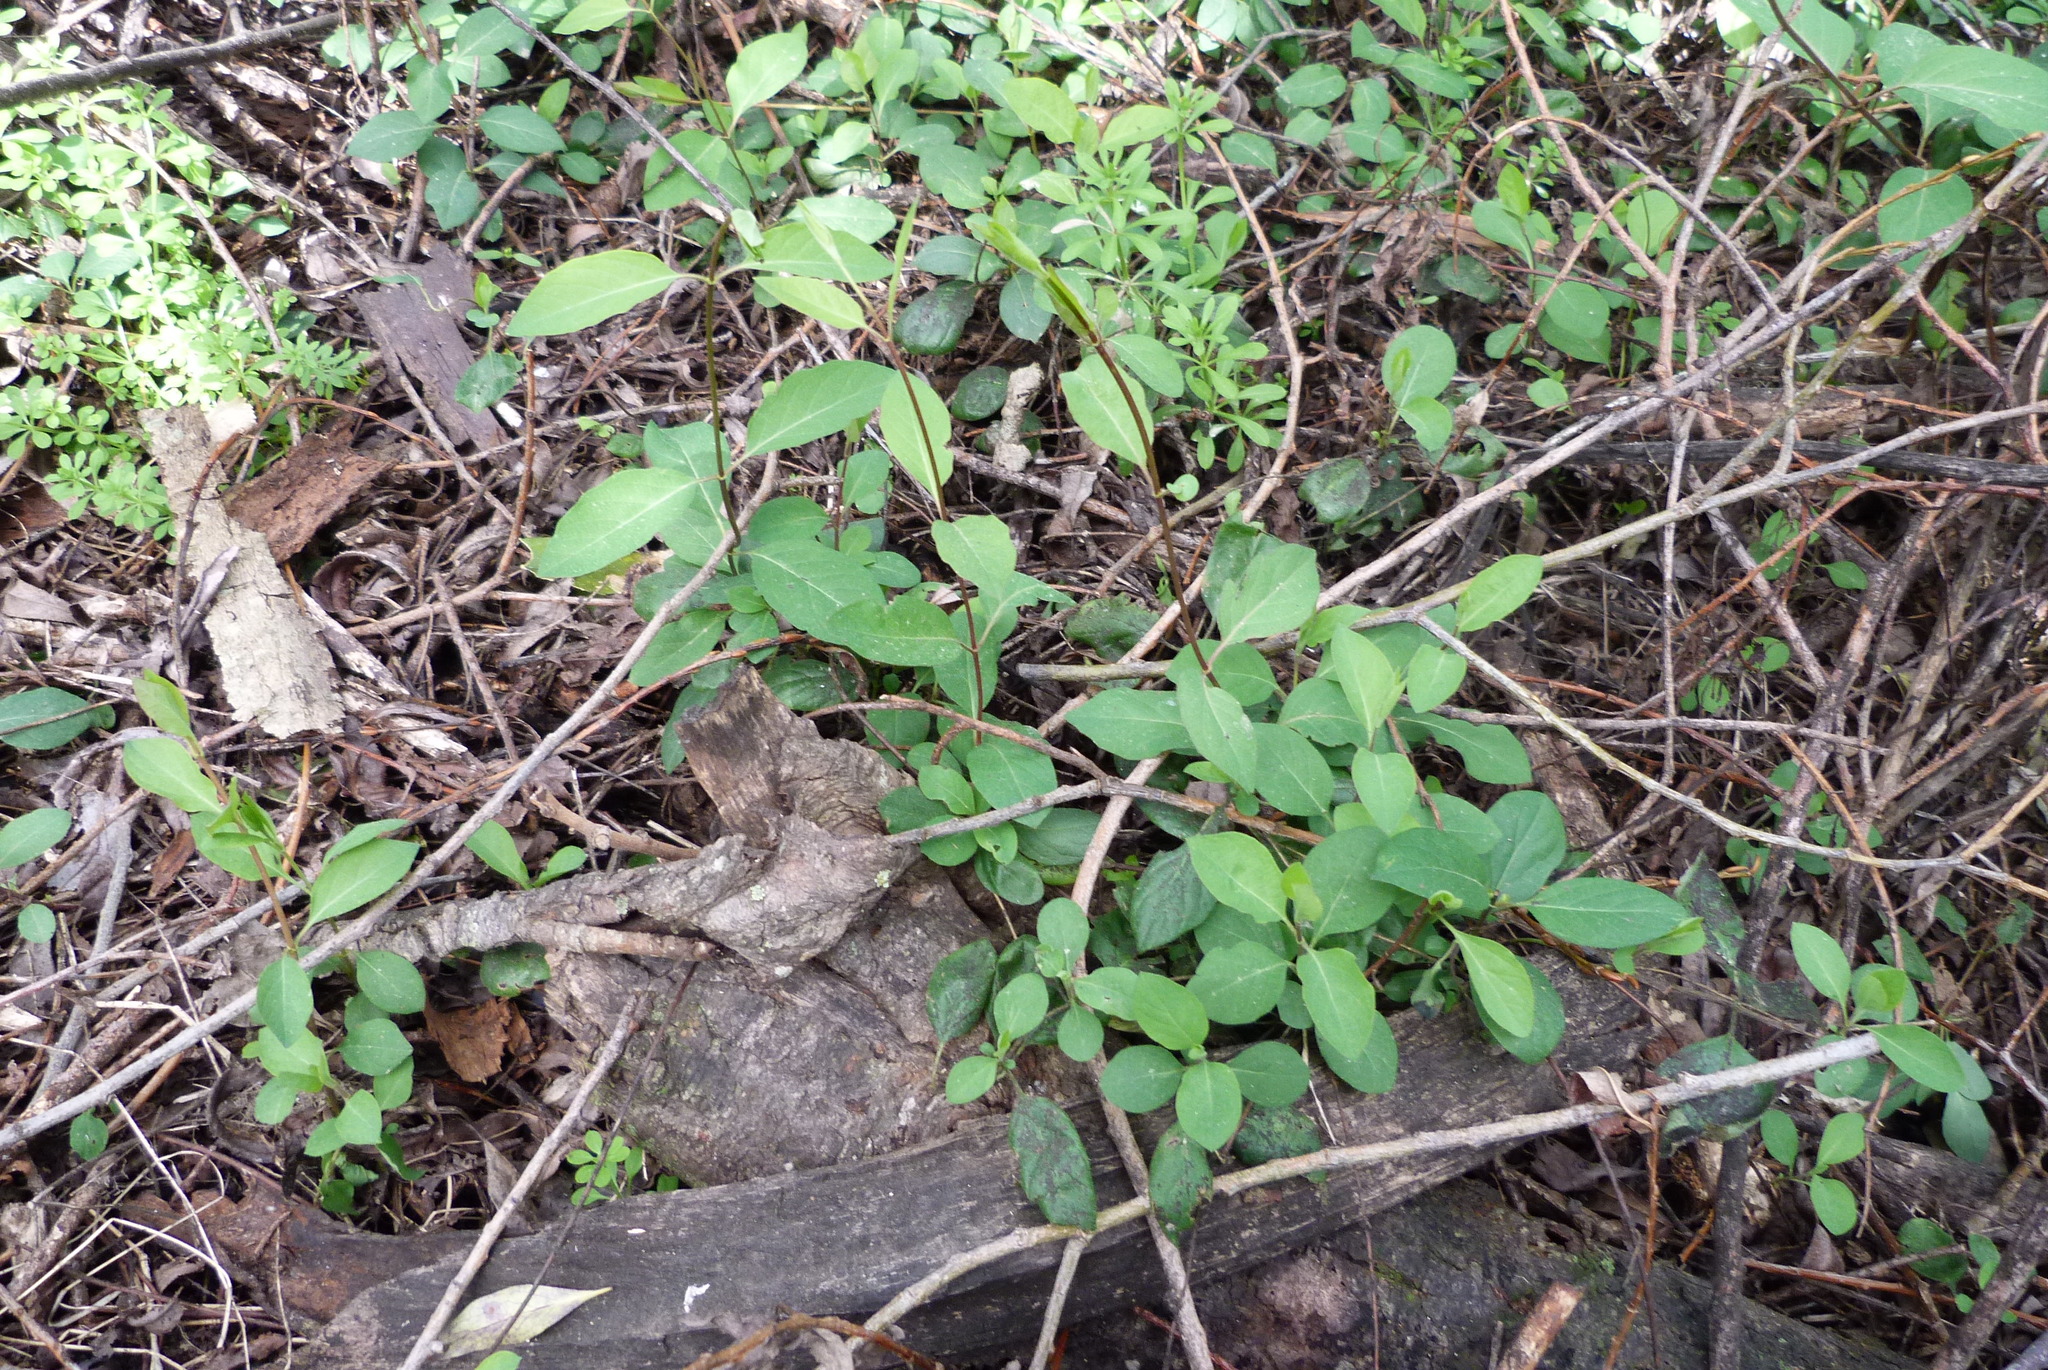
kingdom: Plantae
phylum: Tracheophyta
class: Magnoliopsida
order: Dipsacales
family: Caprifoliaceae
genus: Lonicera
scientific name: Lonicera japonica
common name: Japanese honeysuckle
